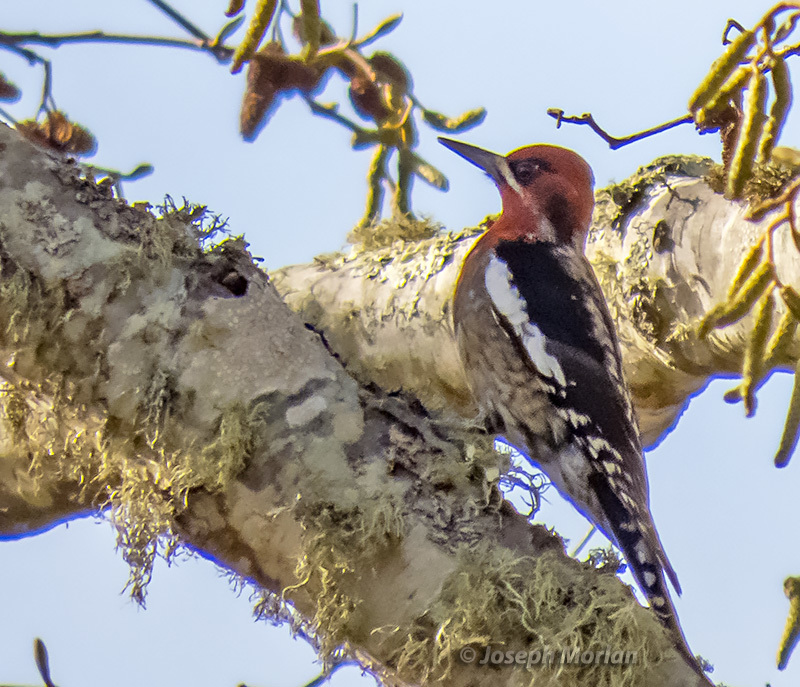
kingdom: Animalia
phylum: Chordata
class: Aves
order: Piciformes
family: Picidae
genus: Sphyrapicus
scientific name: Sphyrapicus ruber
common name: Red-breasted sapsucker
